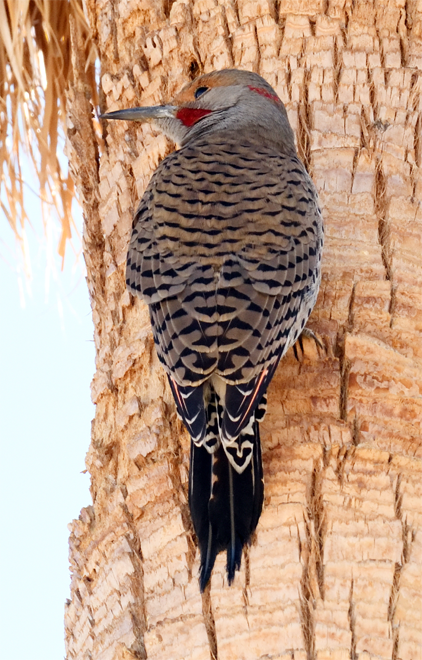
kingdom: Animalia
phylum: Chordata
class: Aves
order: Piciformes
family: Picidae
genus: Colaptes
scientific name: Colaptes auratus
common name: Northern flicker
